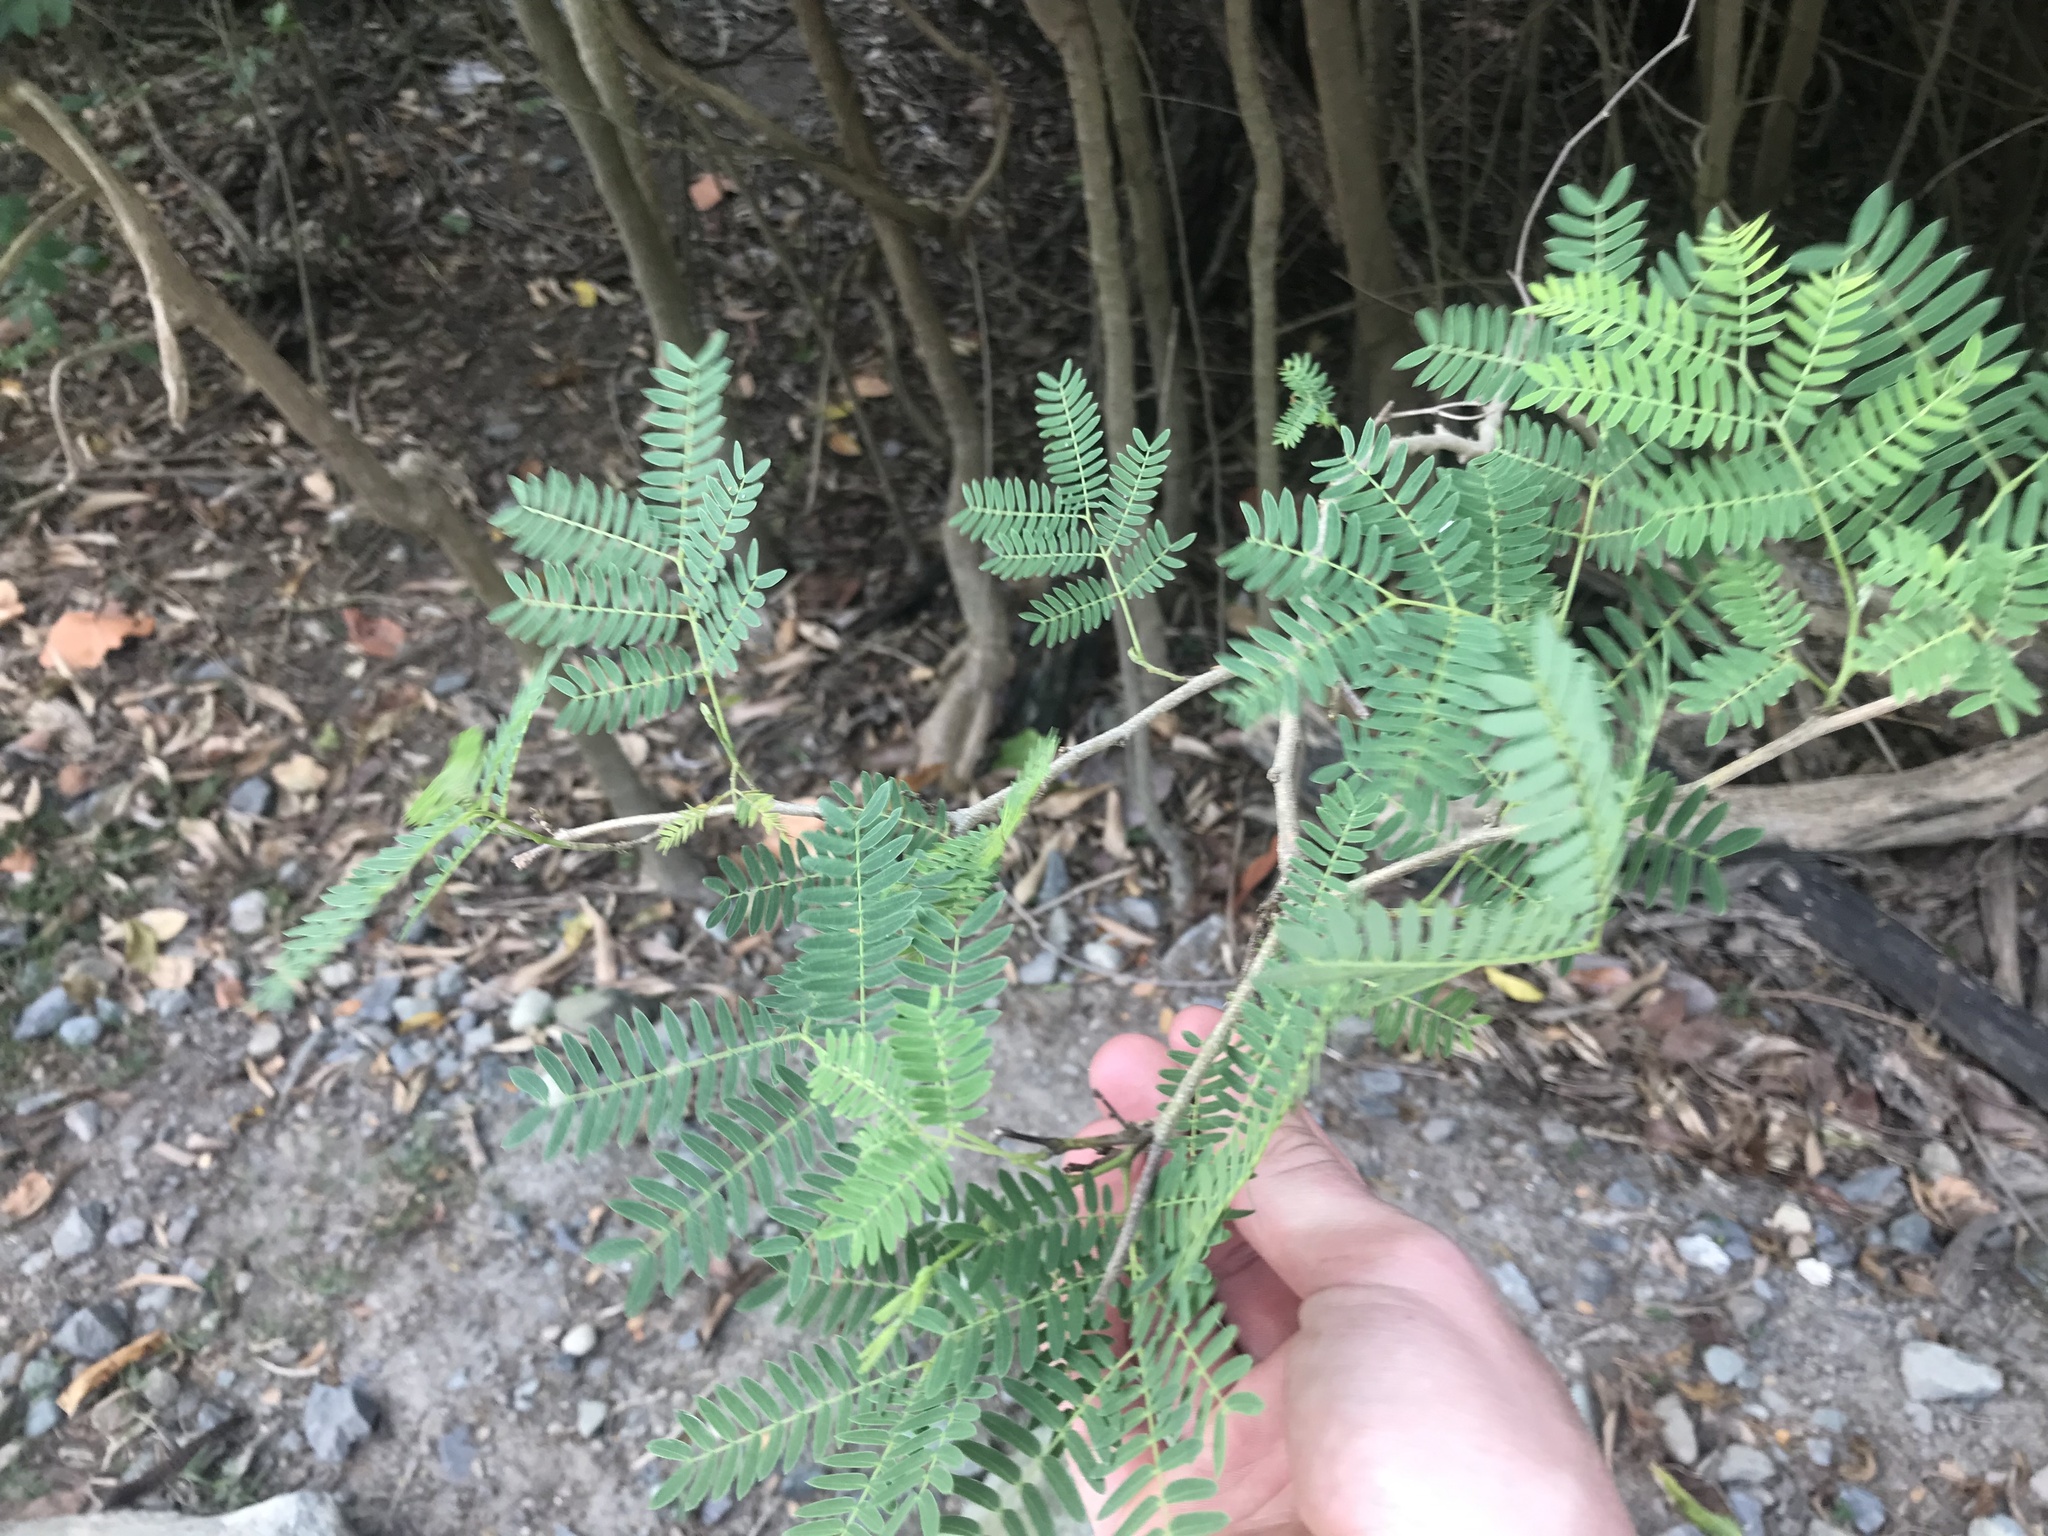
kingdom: Plantae
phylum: Tracheophyta
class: Magnoliopsida
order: Fabales
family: Fabaceae
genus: Leucaena
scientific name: Leucaena leucocephala
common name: White leadtree
